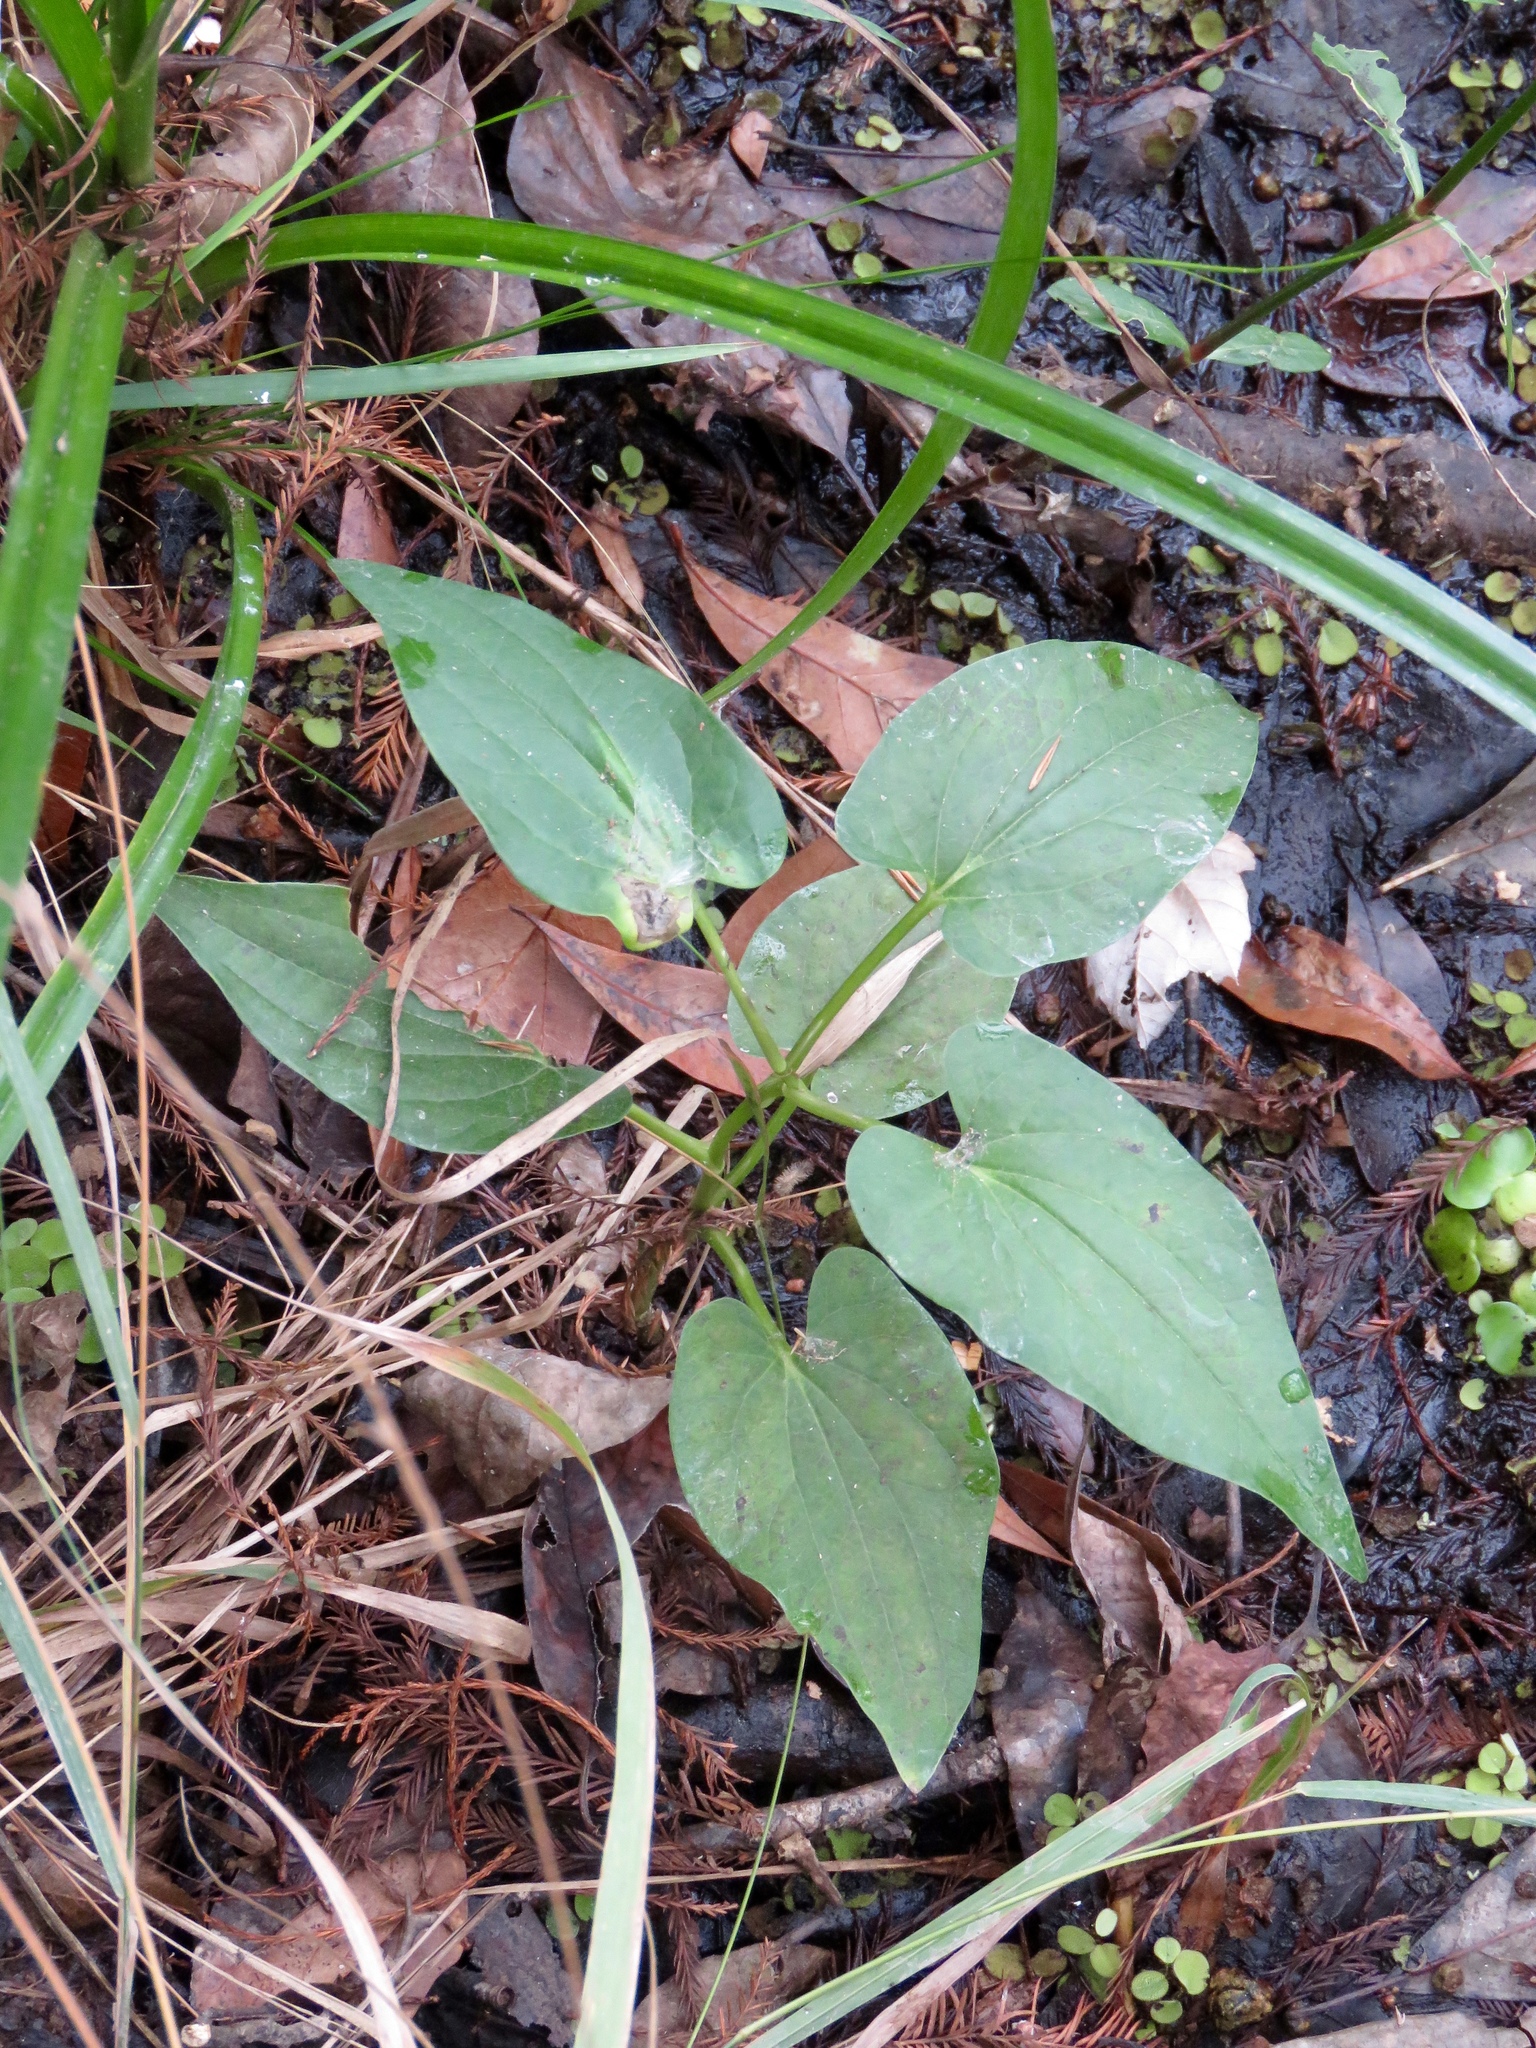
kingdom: Plantae
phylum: Tracheophyta
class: Magnoliopsida
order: Piperales
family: Saururaceae
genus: Saururus
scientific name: Saururus cernuus
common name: Lizard's-tail
